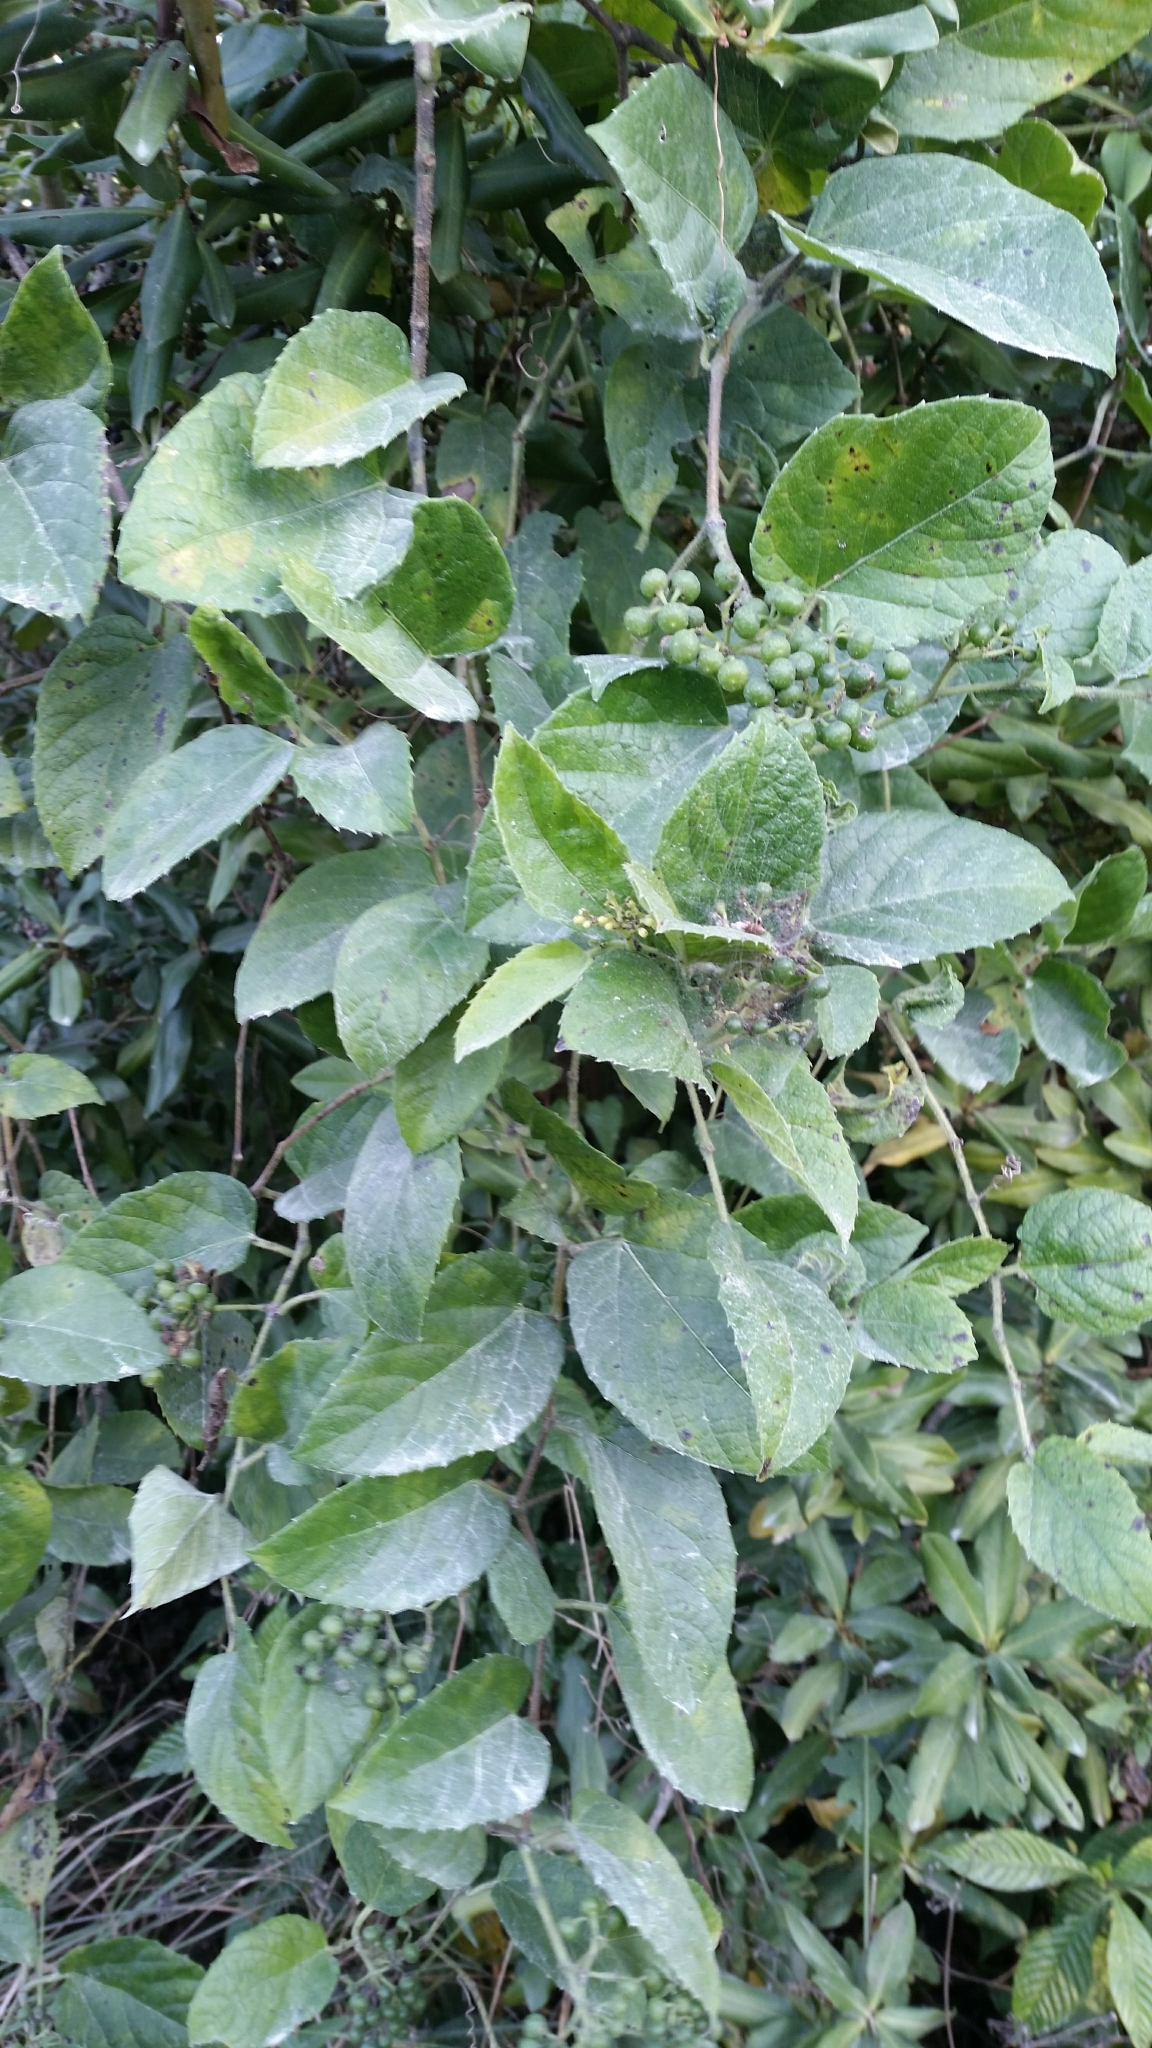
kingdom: Plantae
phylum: Tracheophyta
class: Magnoliopsida
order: Vitales
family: Vitaceae
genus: Cissus
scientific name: Cissus verticillata
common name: Princess vine
